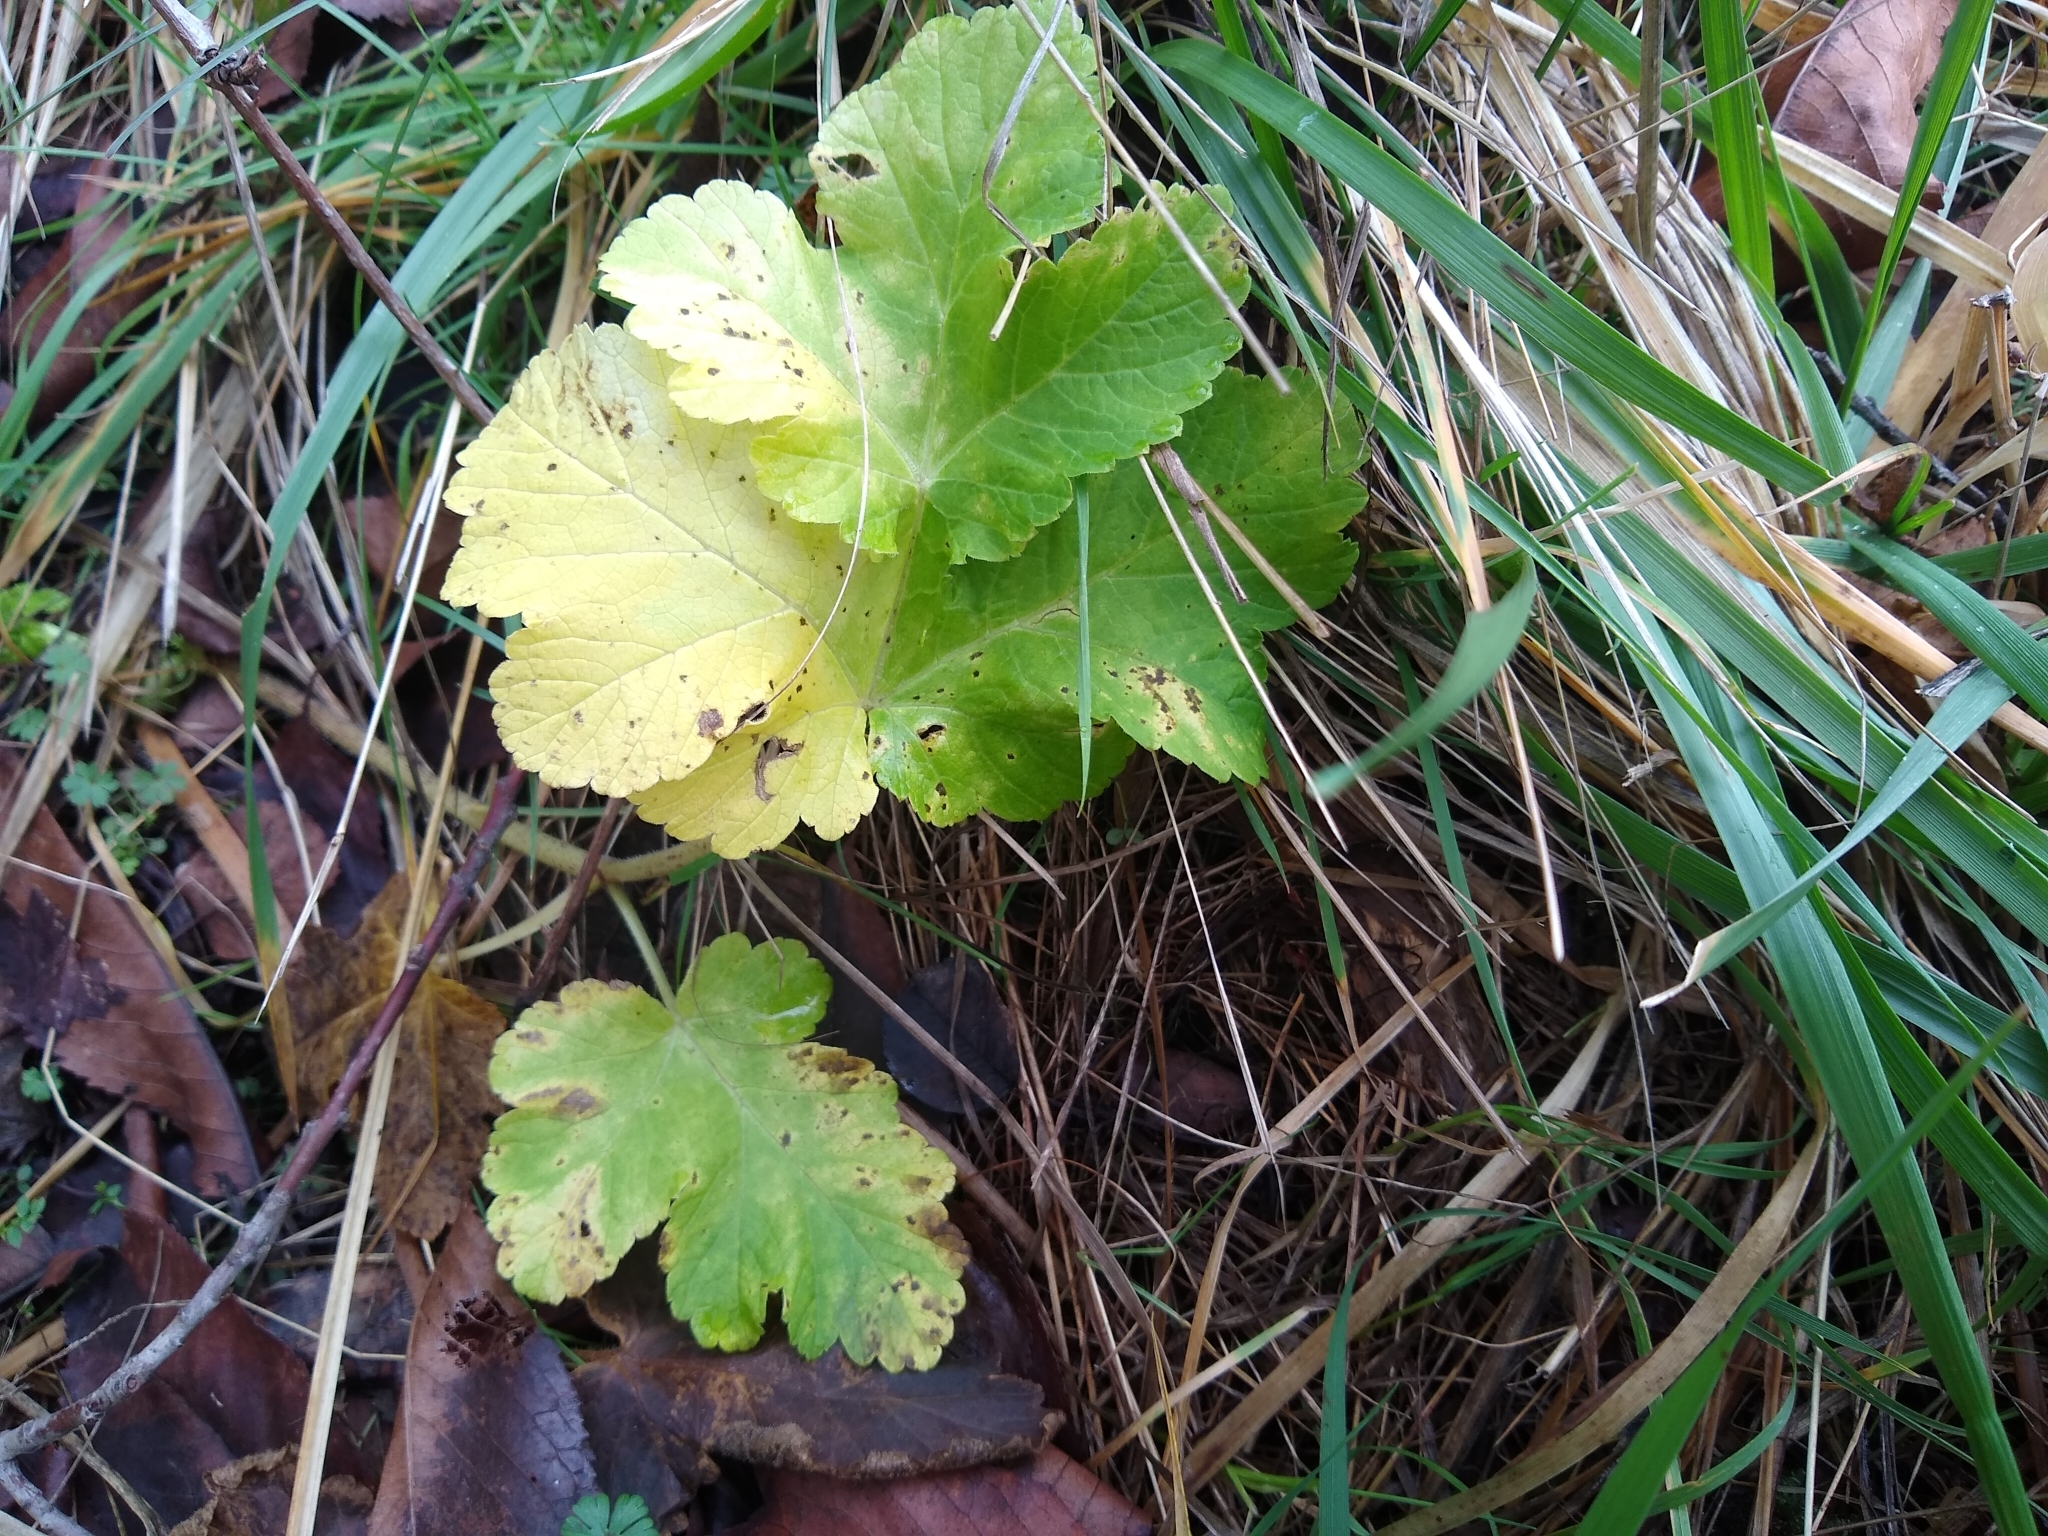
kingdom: Plantae
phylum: Tracheophyta
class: Magnoliopsida
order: Apiales
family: Apiaceae
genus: Heracleum
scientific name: Heracleum maximum
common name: American cow parsnip
